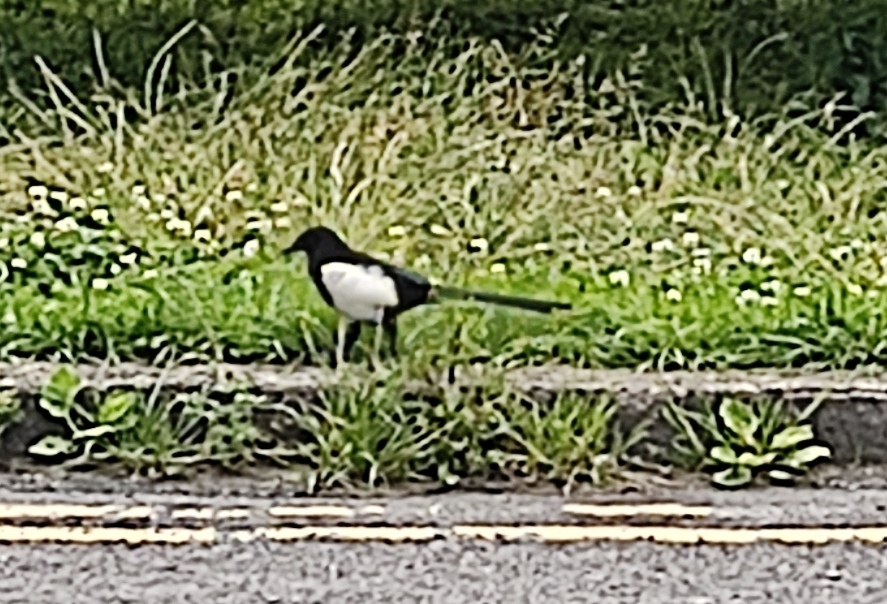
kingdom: Animalia
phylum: Chordata
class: Aves
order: Passeriformes
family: Corvidae
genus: Pica
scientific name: Pica pica
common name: Eurasian magpie
